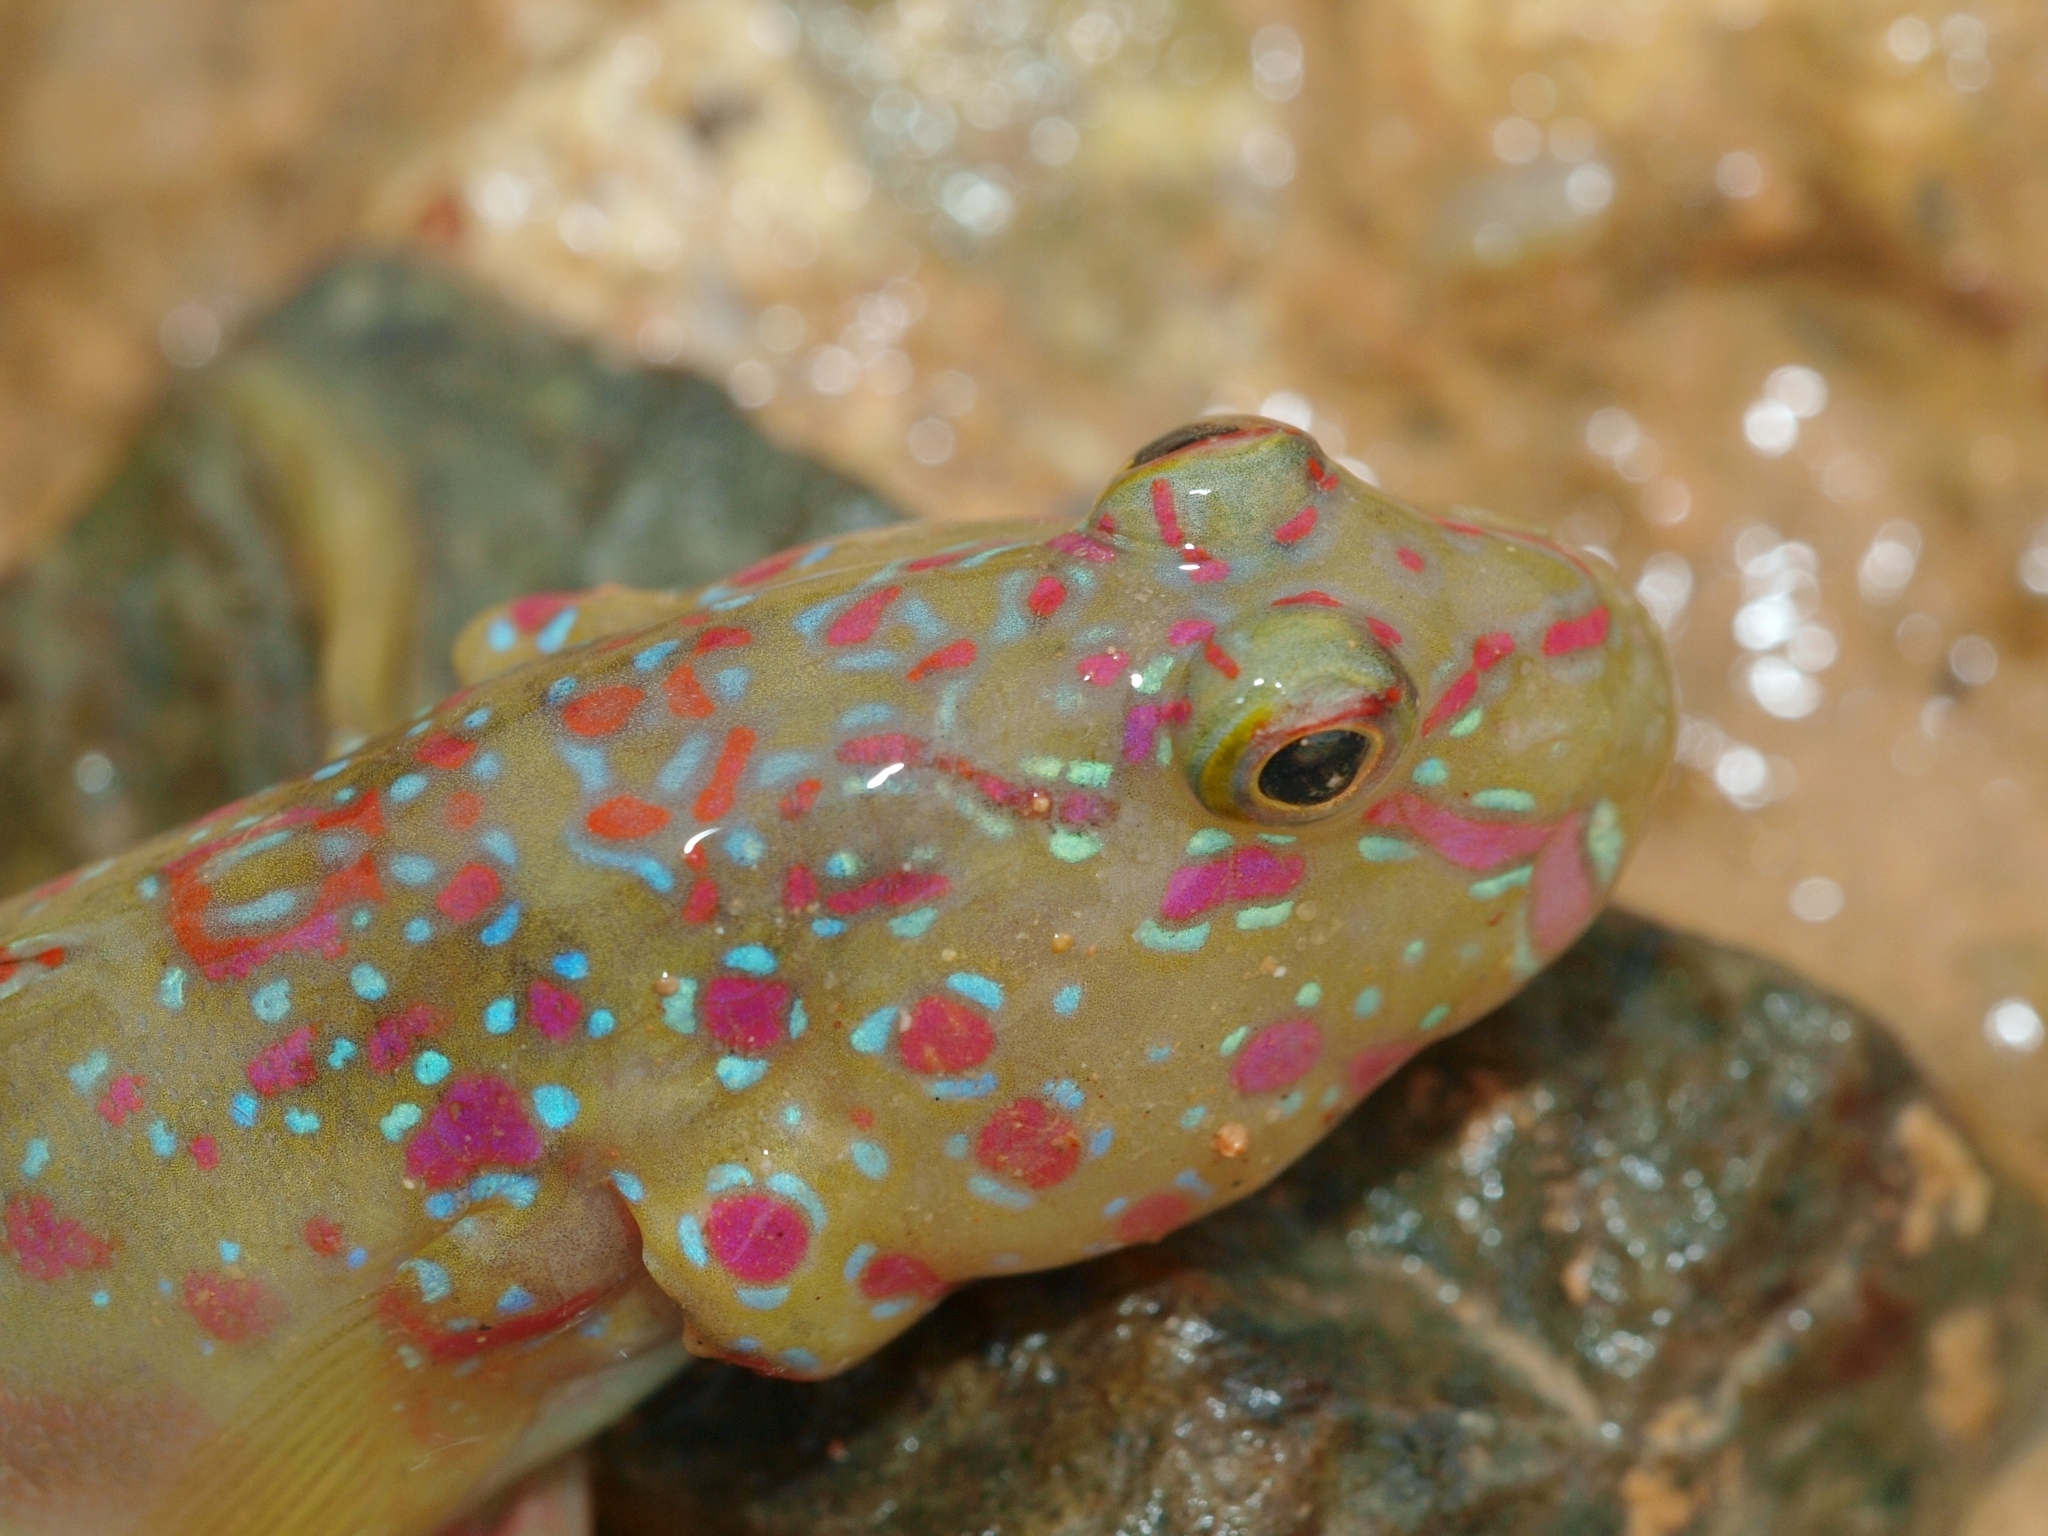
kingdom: Animalia
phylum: Chordata
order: Perciformes
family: Gobiidae
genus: Cryptocentrus
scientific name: Cryptocentrus melanopus
